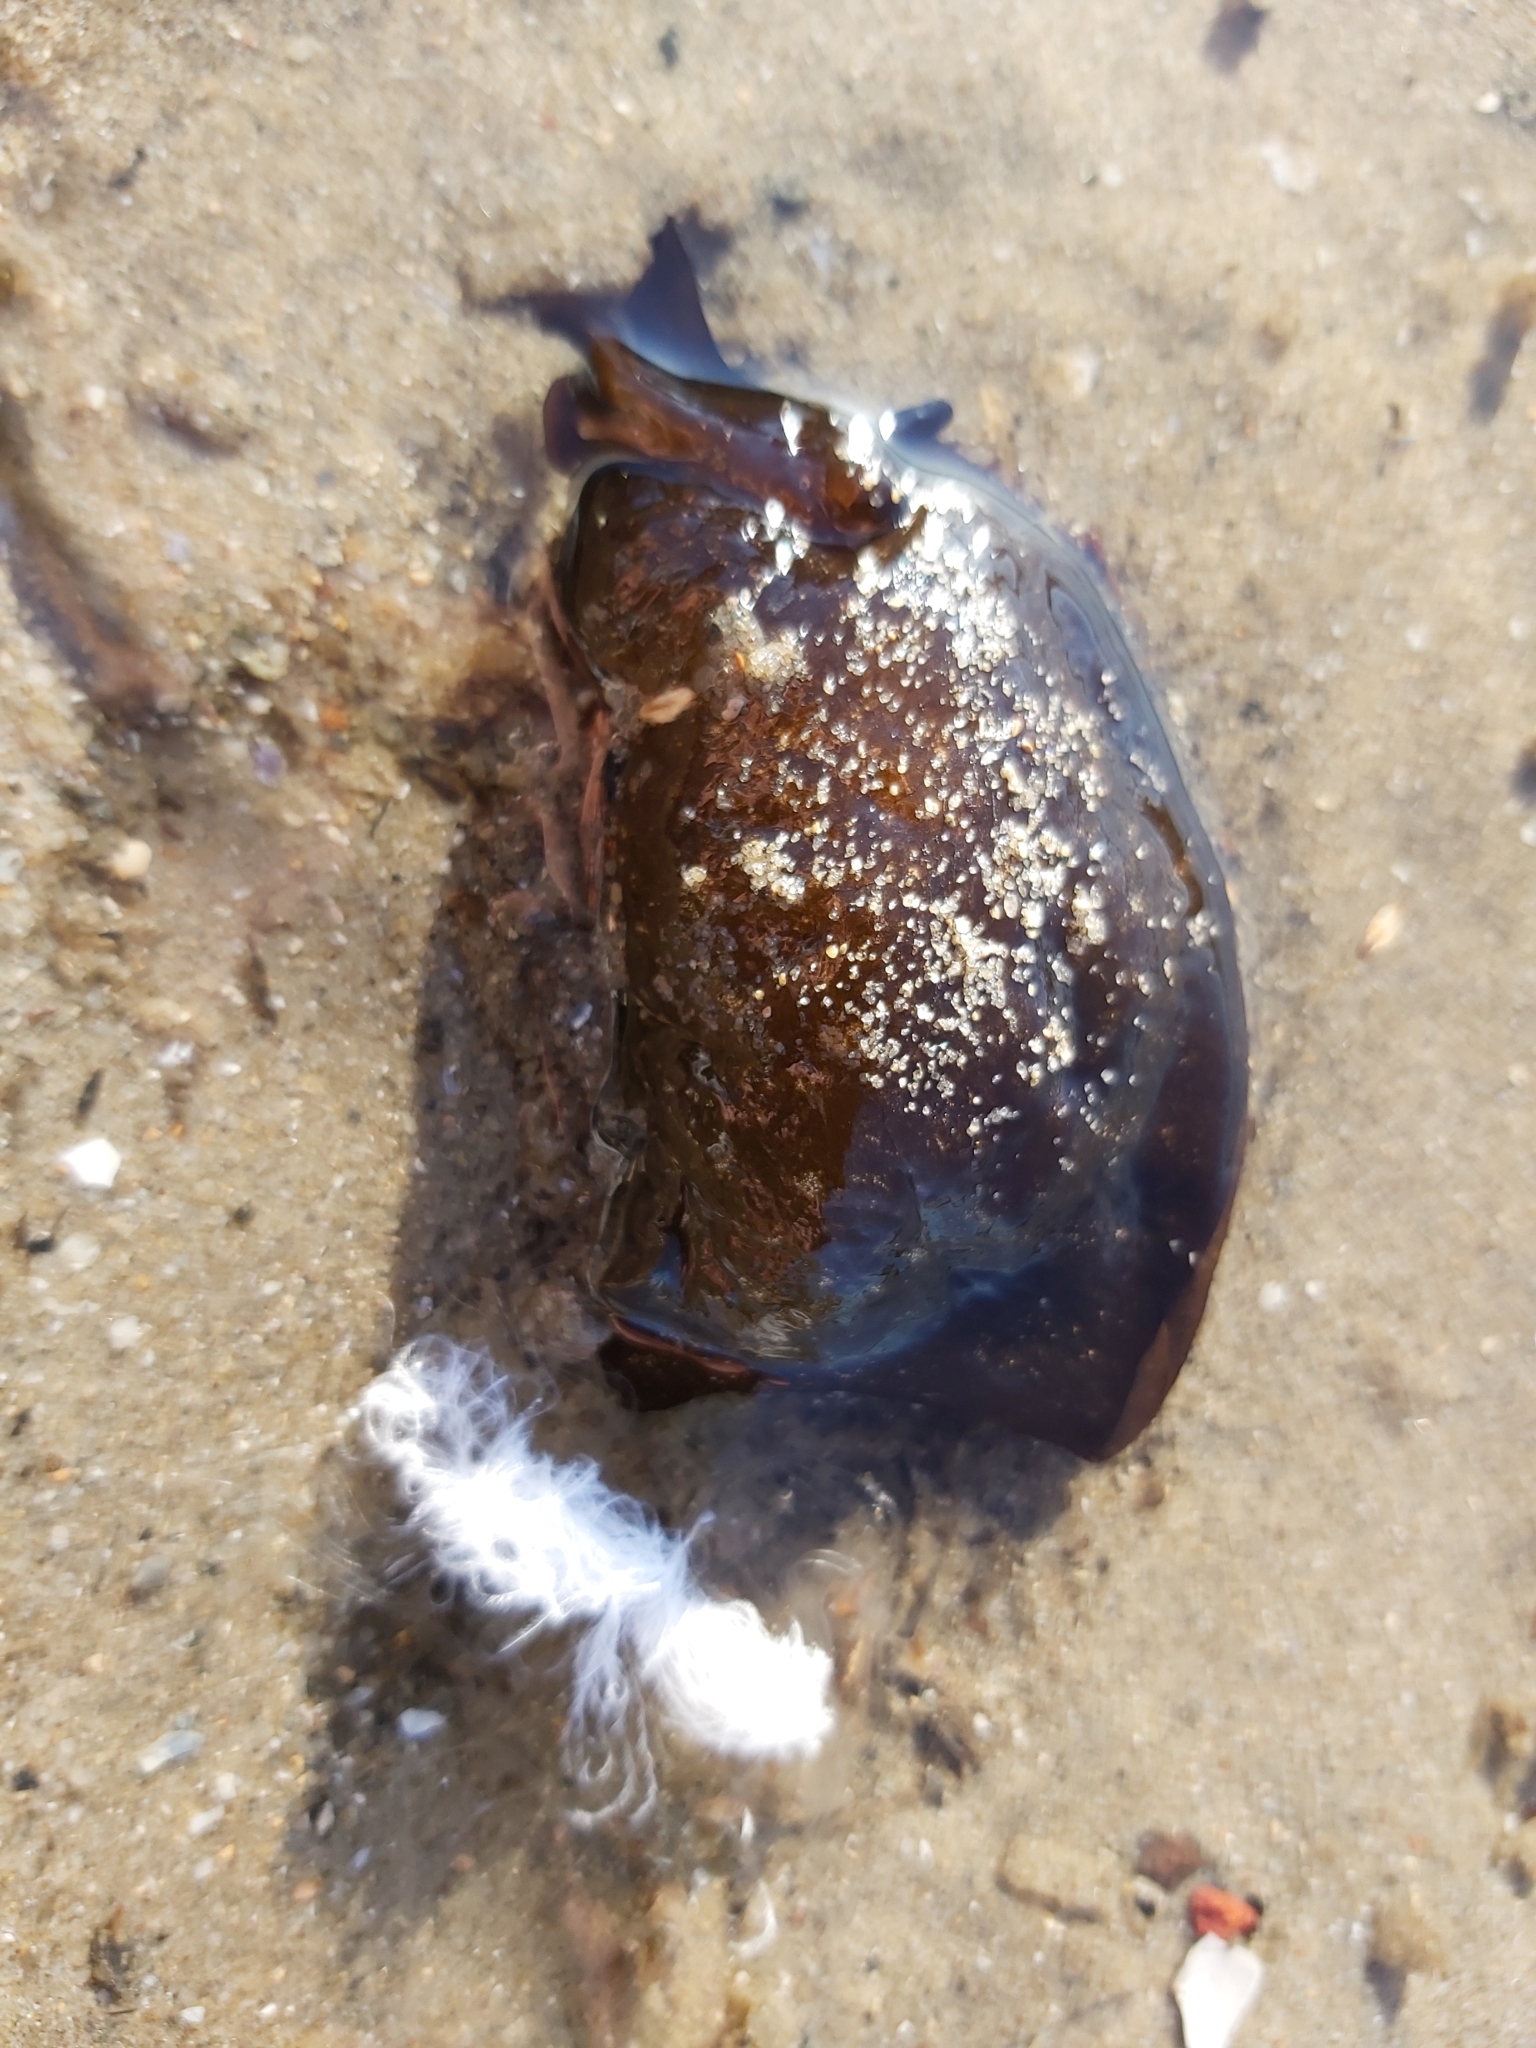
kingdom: Animalia
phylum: Mollusca
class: Gastropoda
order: Aplysiida
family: Aplysiidae
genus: Aplysia
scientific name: Aplysia juliana
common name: Walking sea hare
